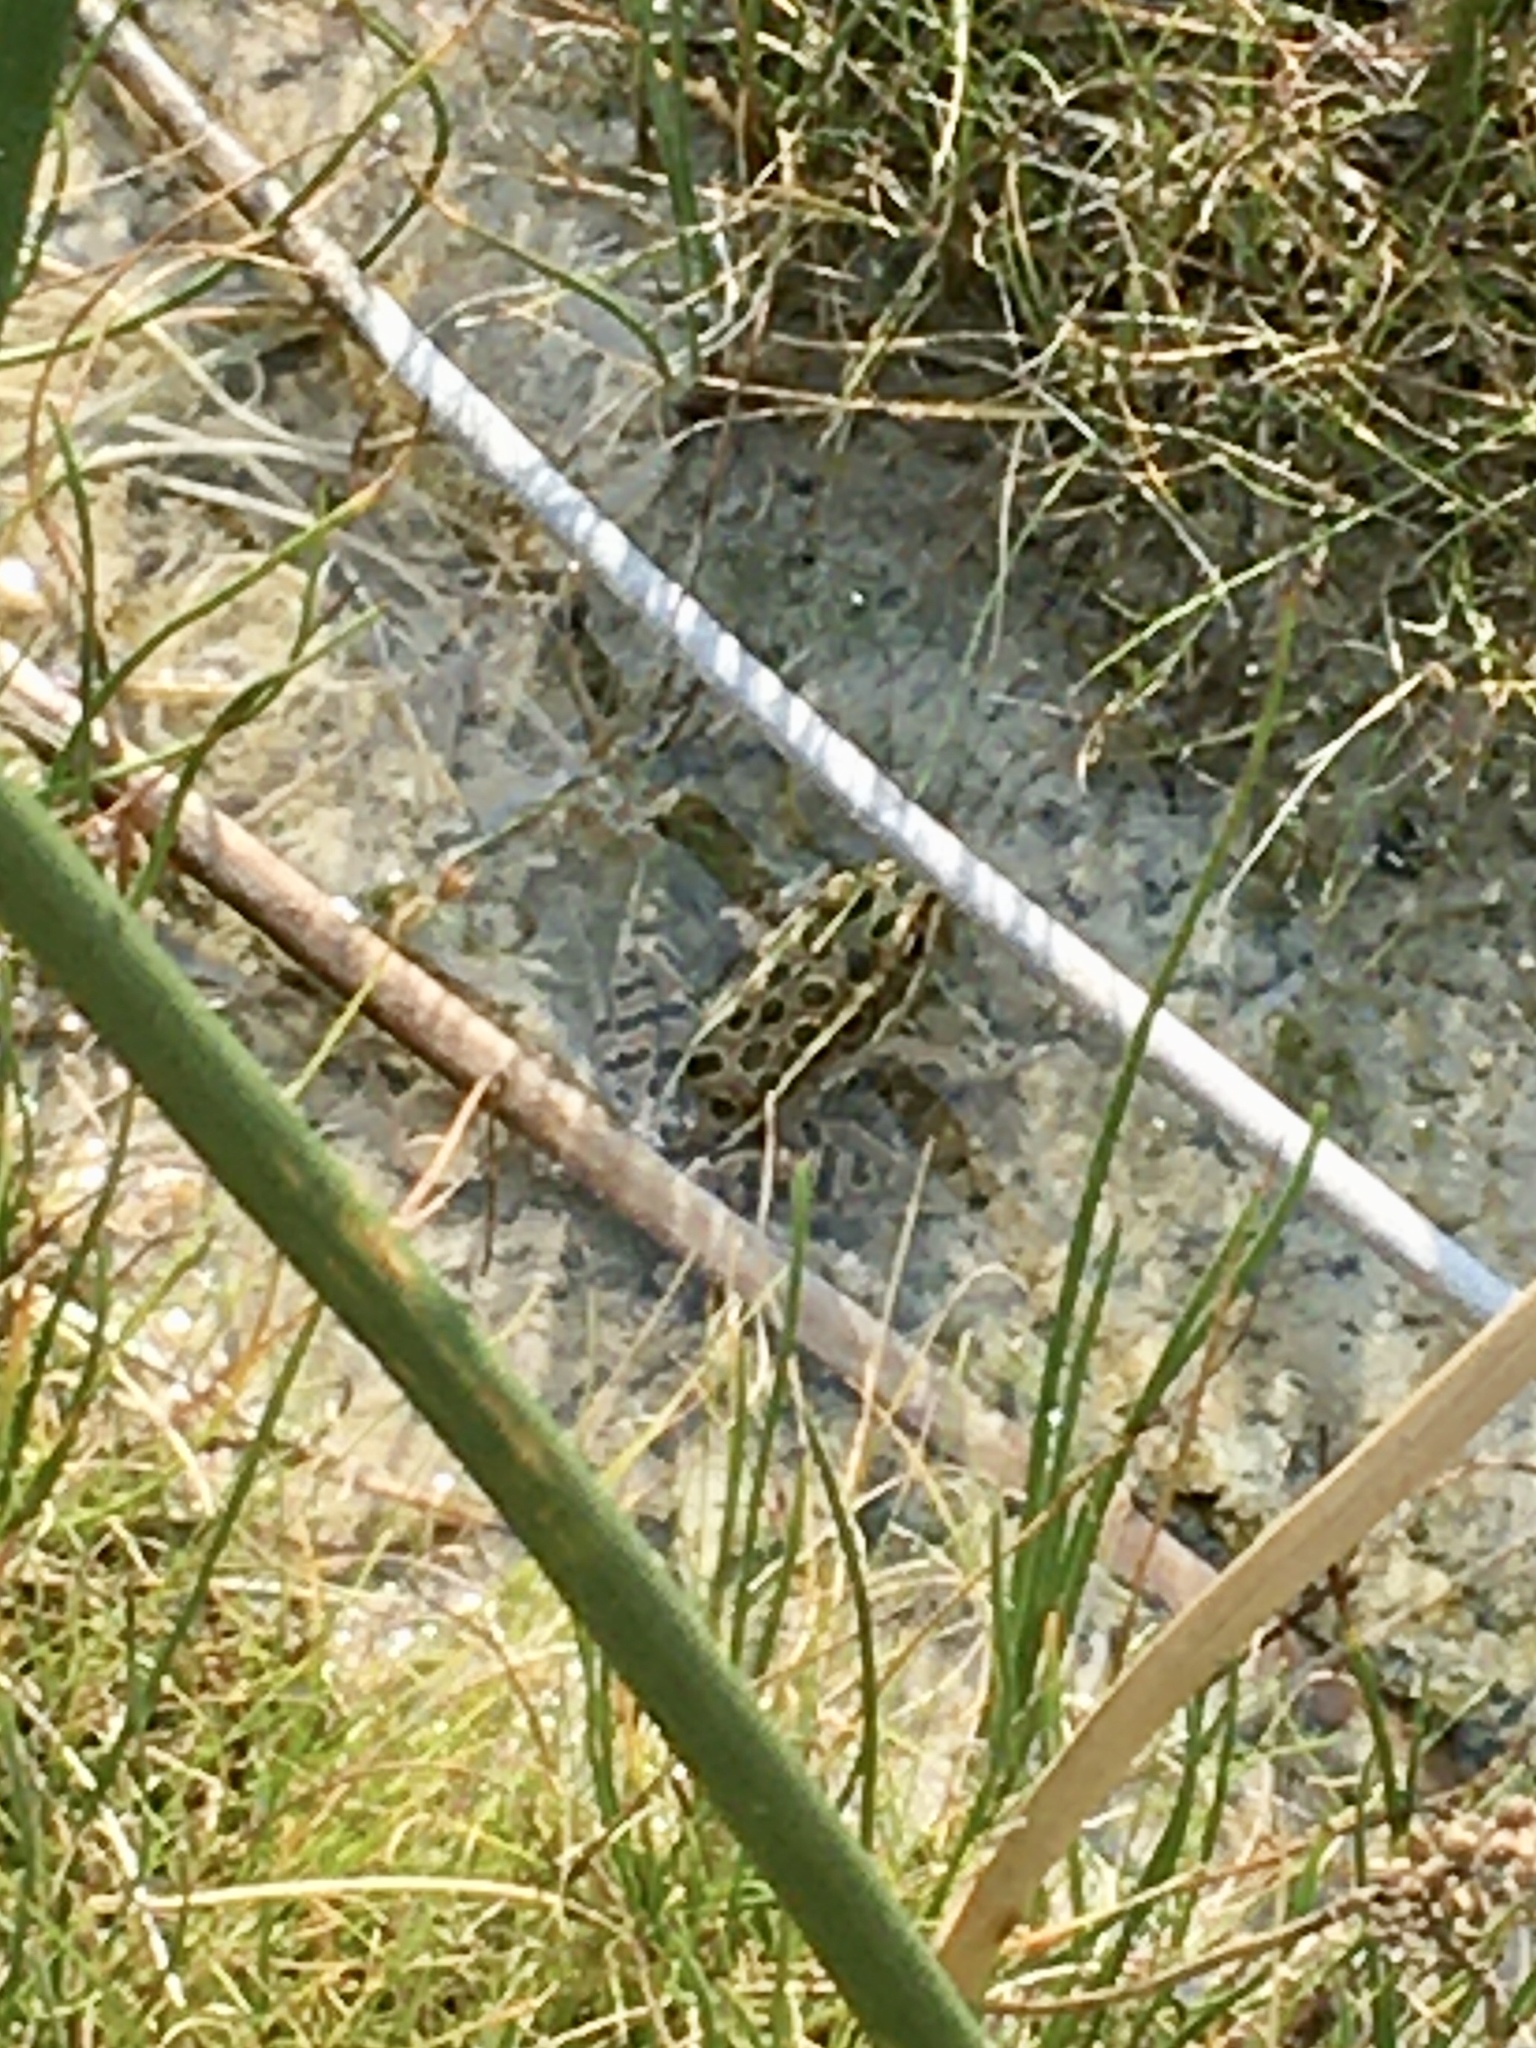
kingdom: Animalia
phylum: Chordata
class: Amphibia
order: Anura
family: Ranidae
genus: Lithobates
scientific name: Lithobates pipiens
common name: Northern leopard frog
